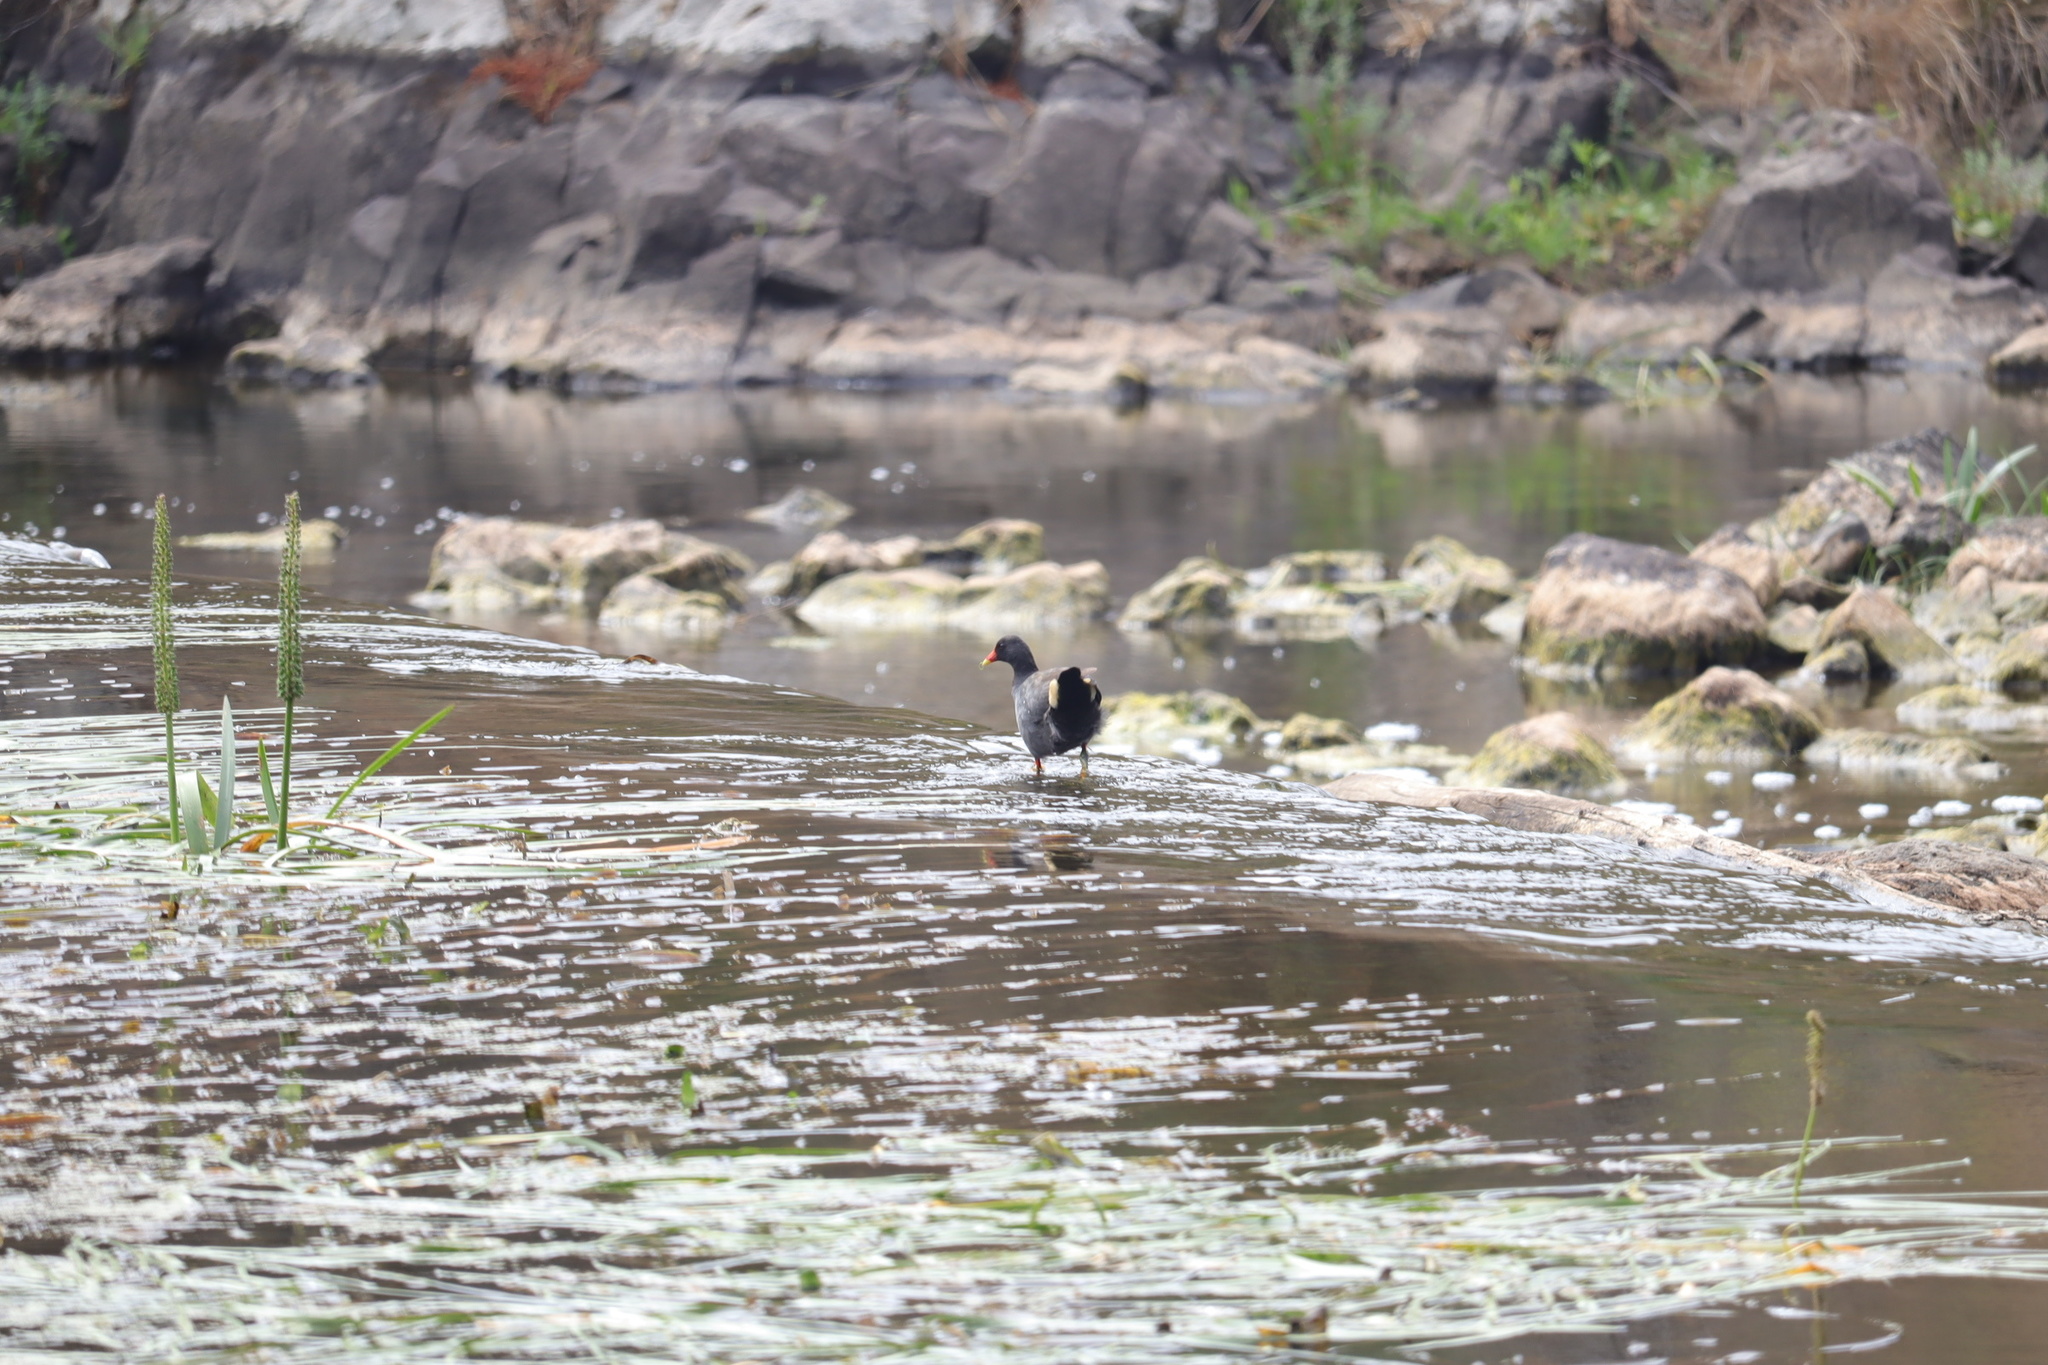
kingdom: Animalia
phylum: Chordata
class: Aves
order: Gruiformes
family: Rallidae
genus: Gallinula
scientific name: Gallinula tenebrosa
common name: Dusky moorhen
